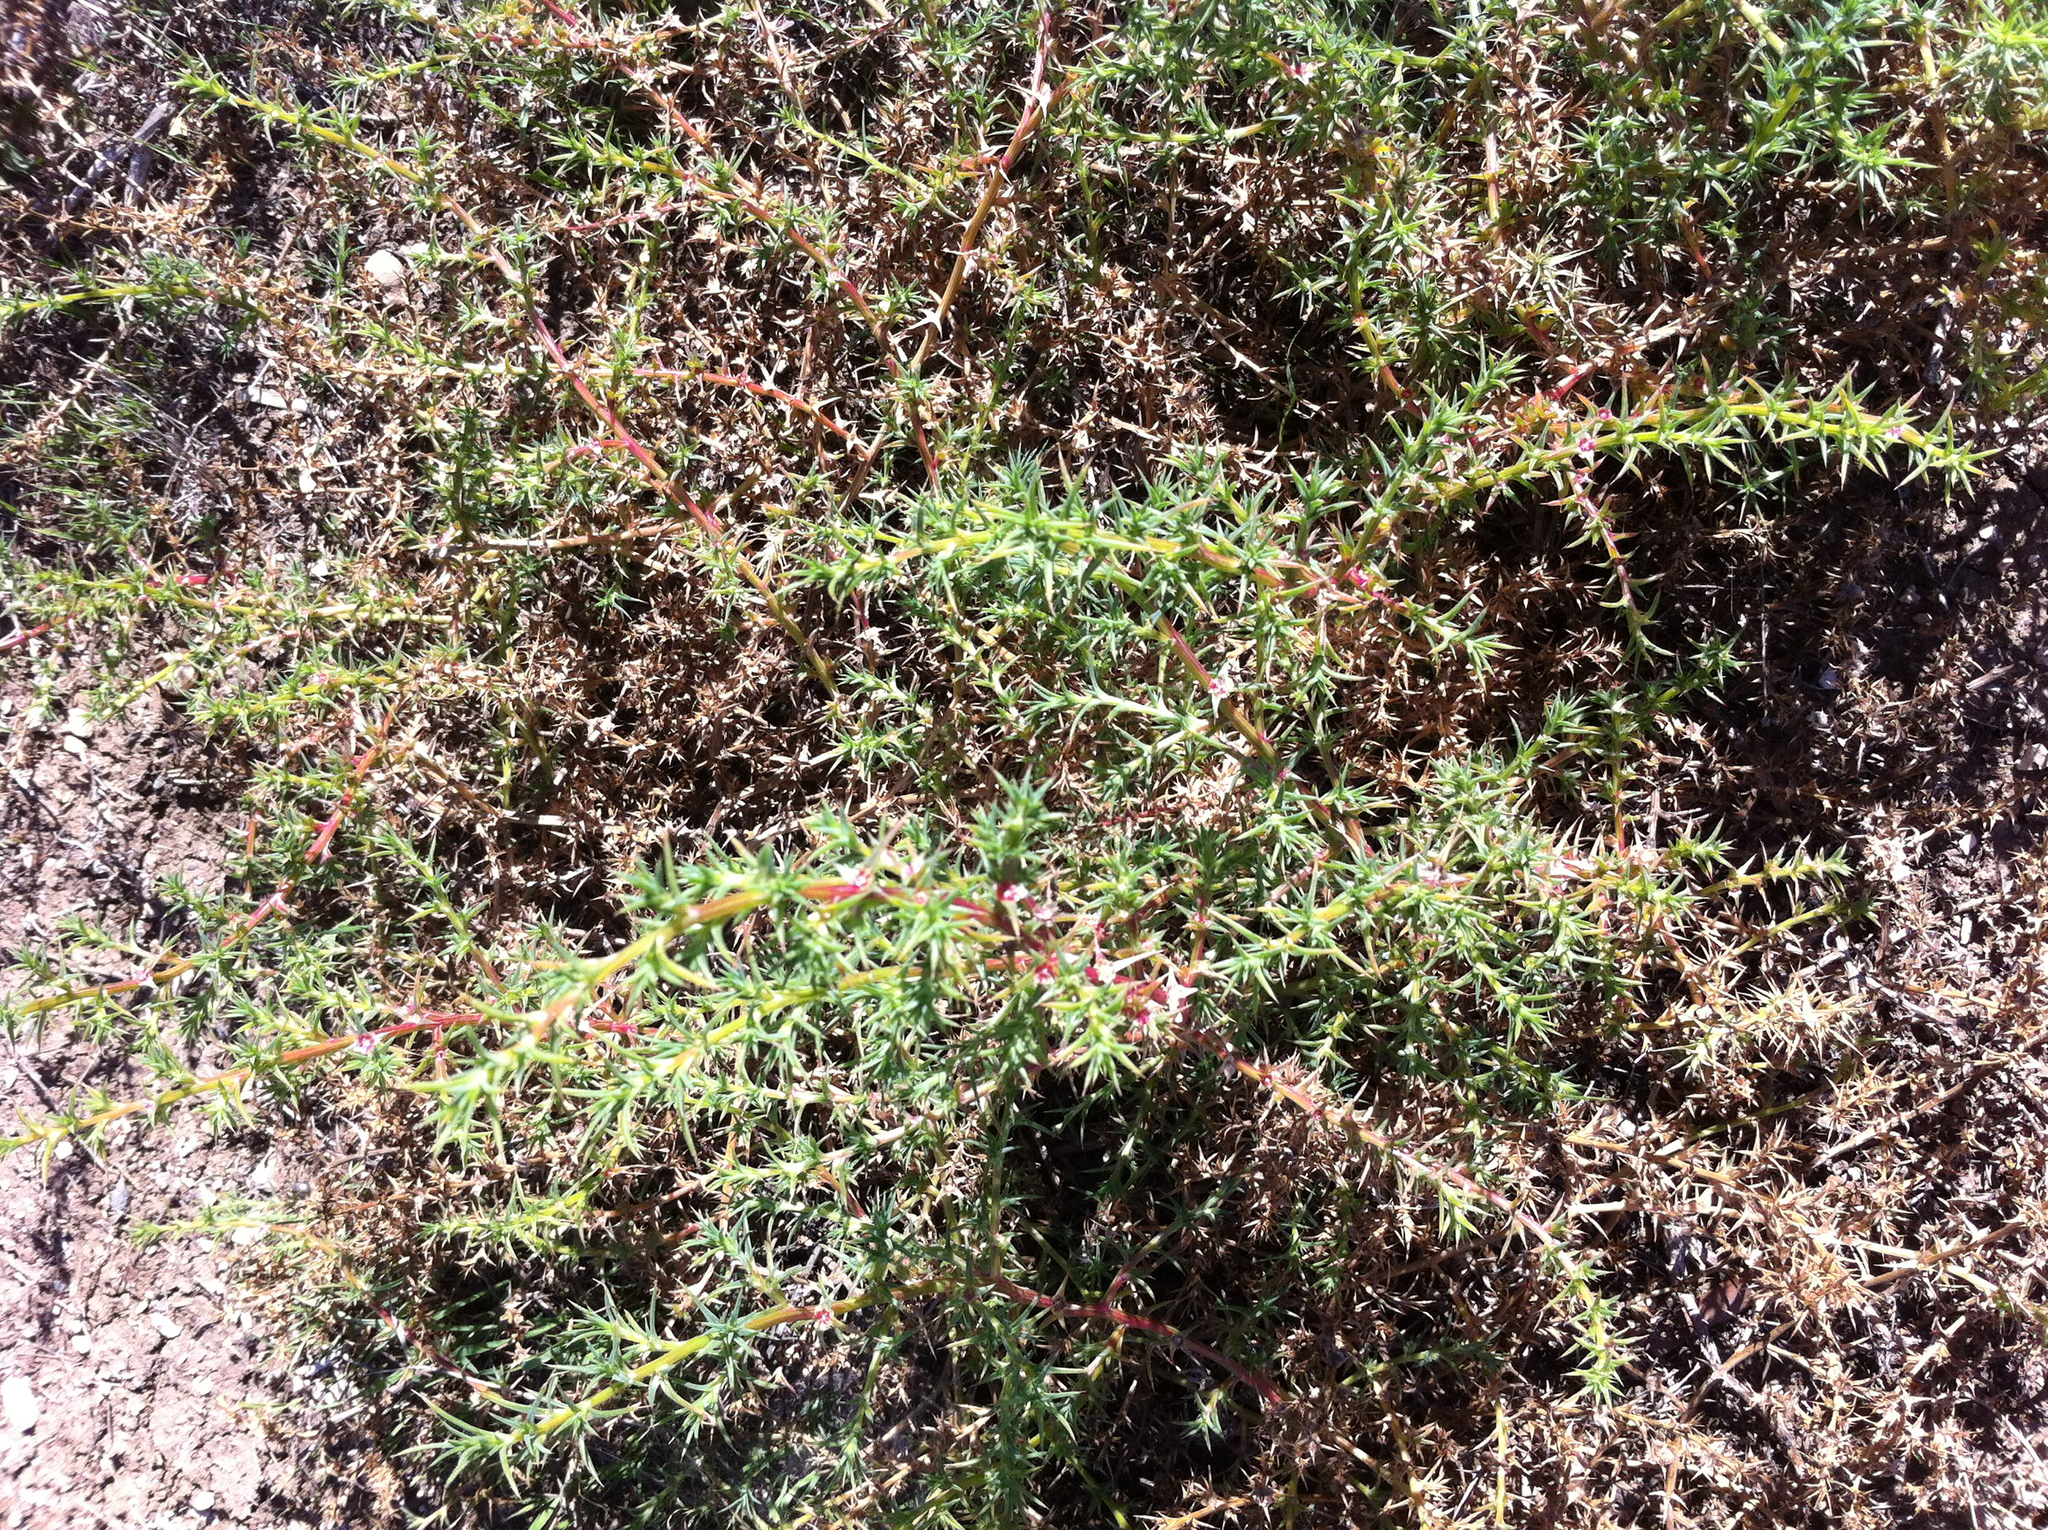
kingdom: Plantae
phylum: Tracheophyta
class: Magnoliopsida
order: Caryophyllales
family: Amaranthaceae
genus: Salsola
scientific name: Salsola
